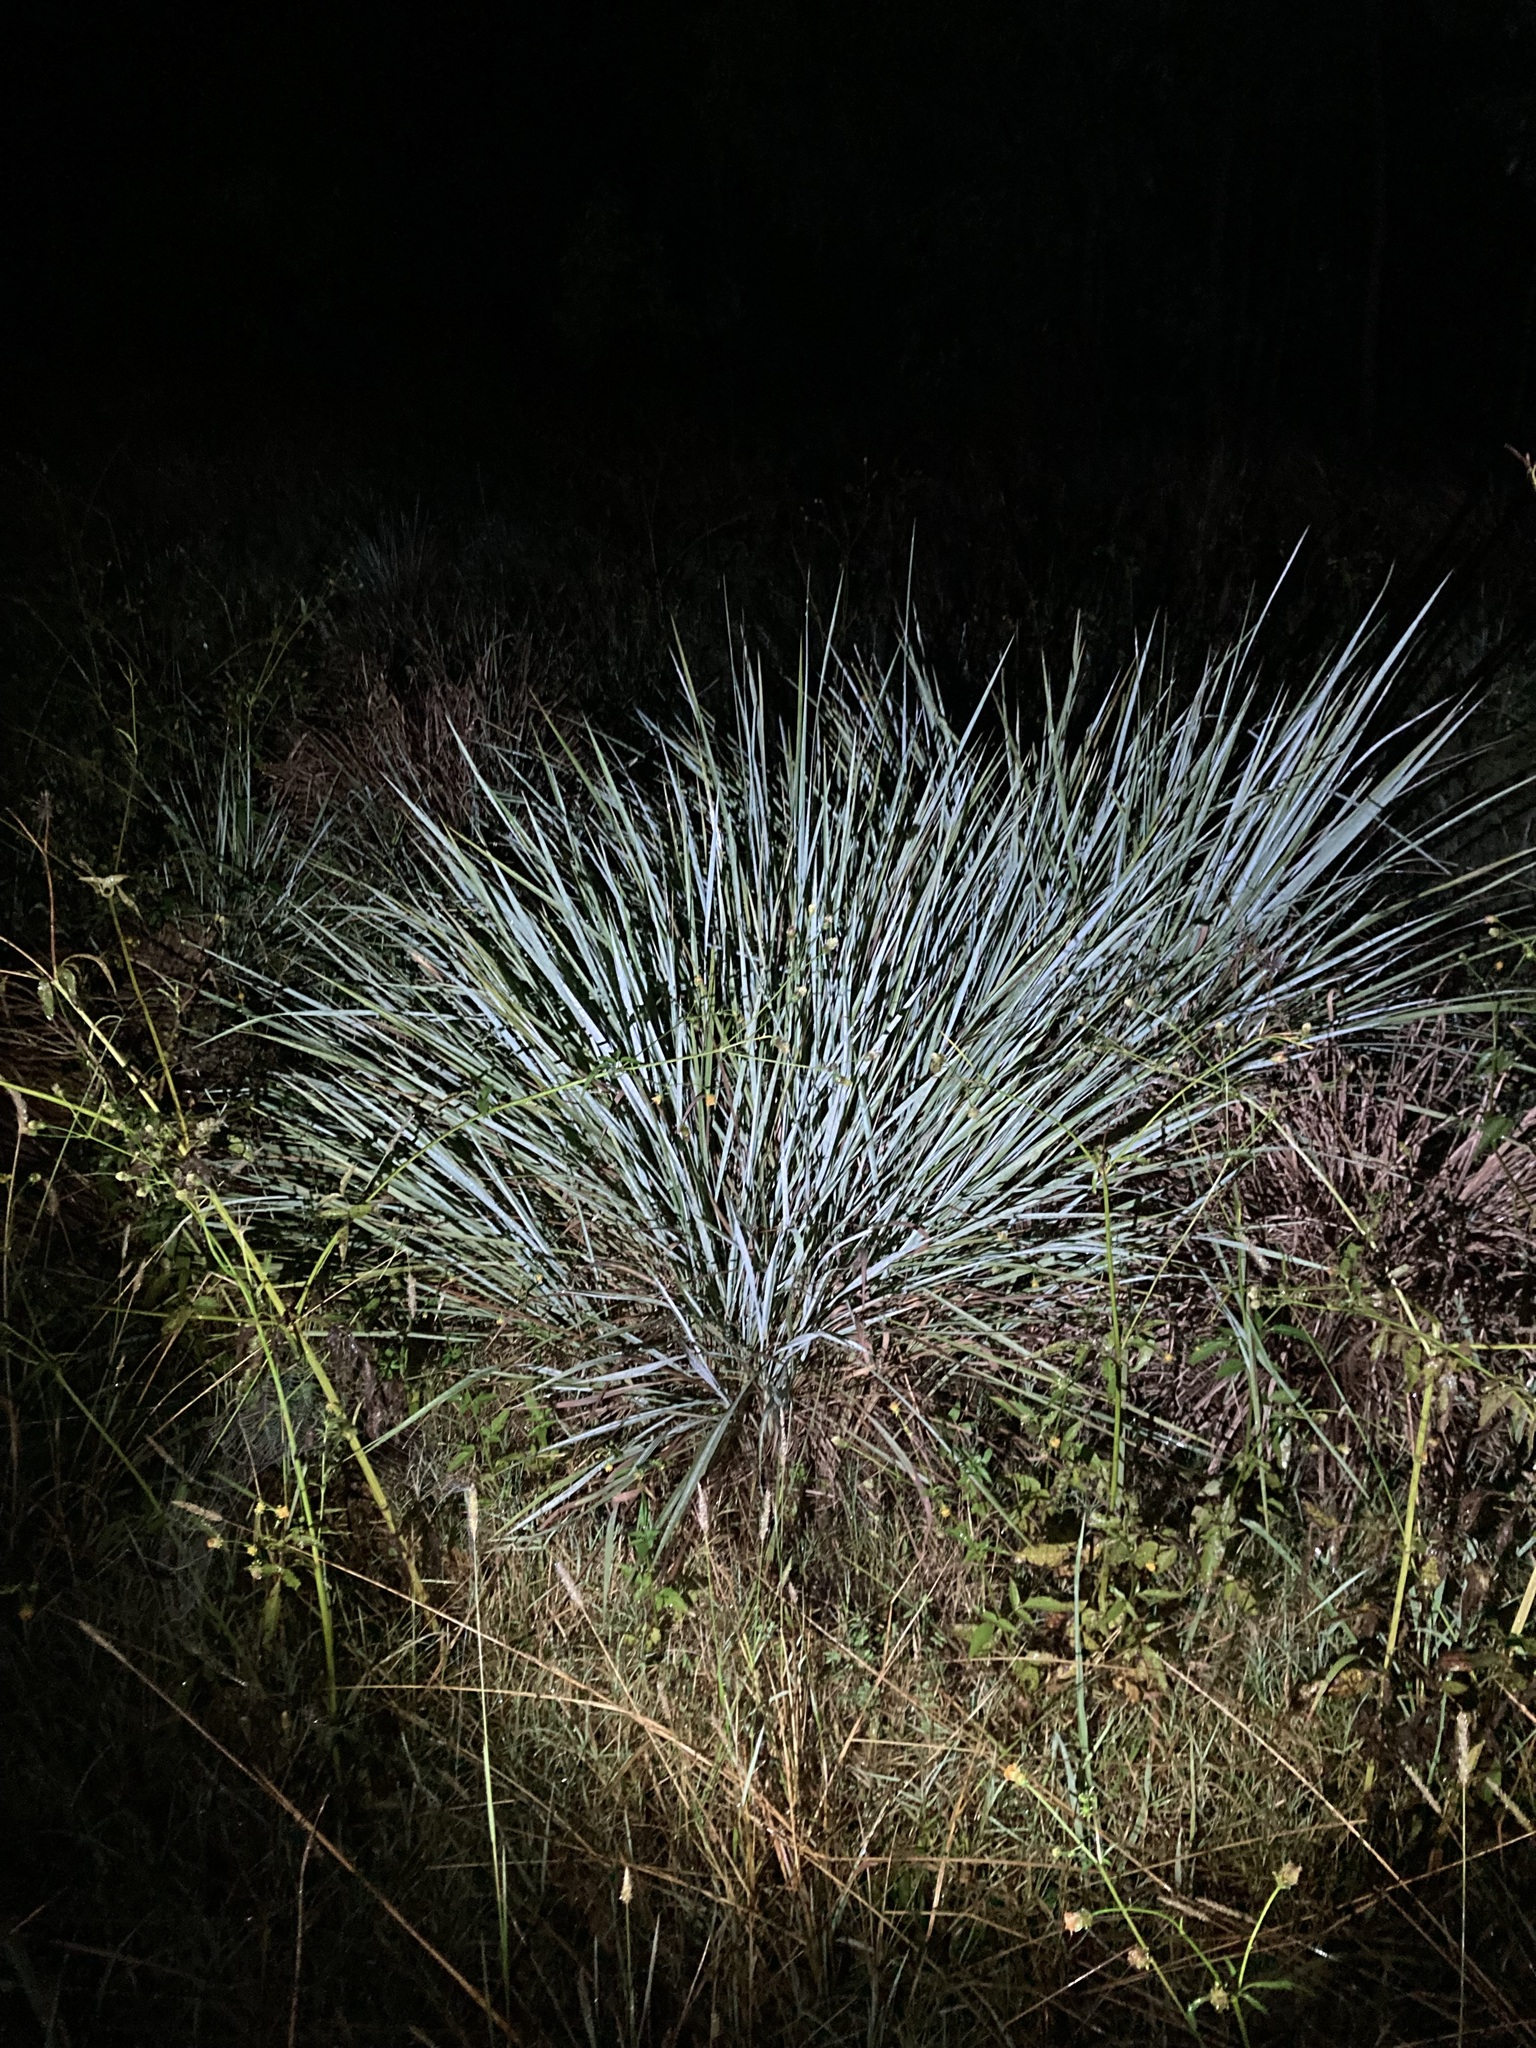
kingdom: Plantae
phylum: Tracheophyta
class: Liliopsida
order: Poales
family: Poaceae
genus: Paspalum
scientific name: Paspalum quadrifarium
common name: Tussock paspalum
